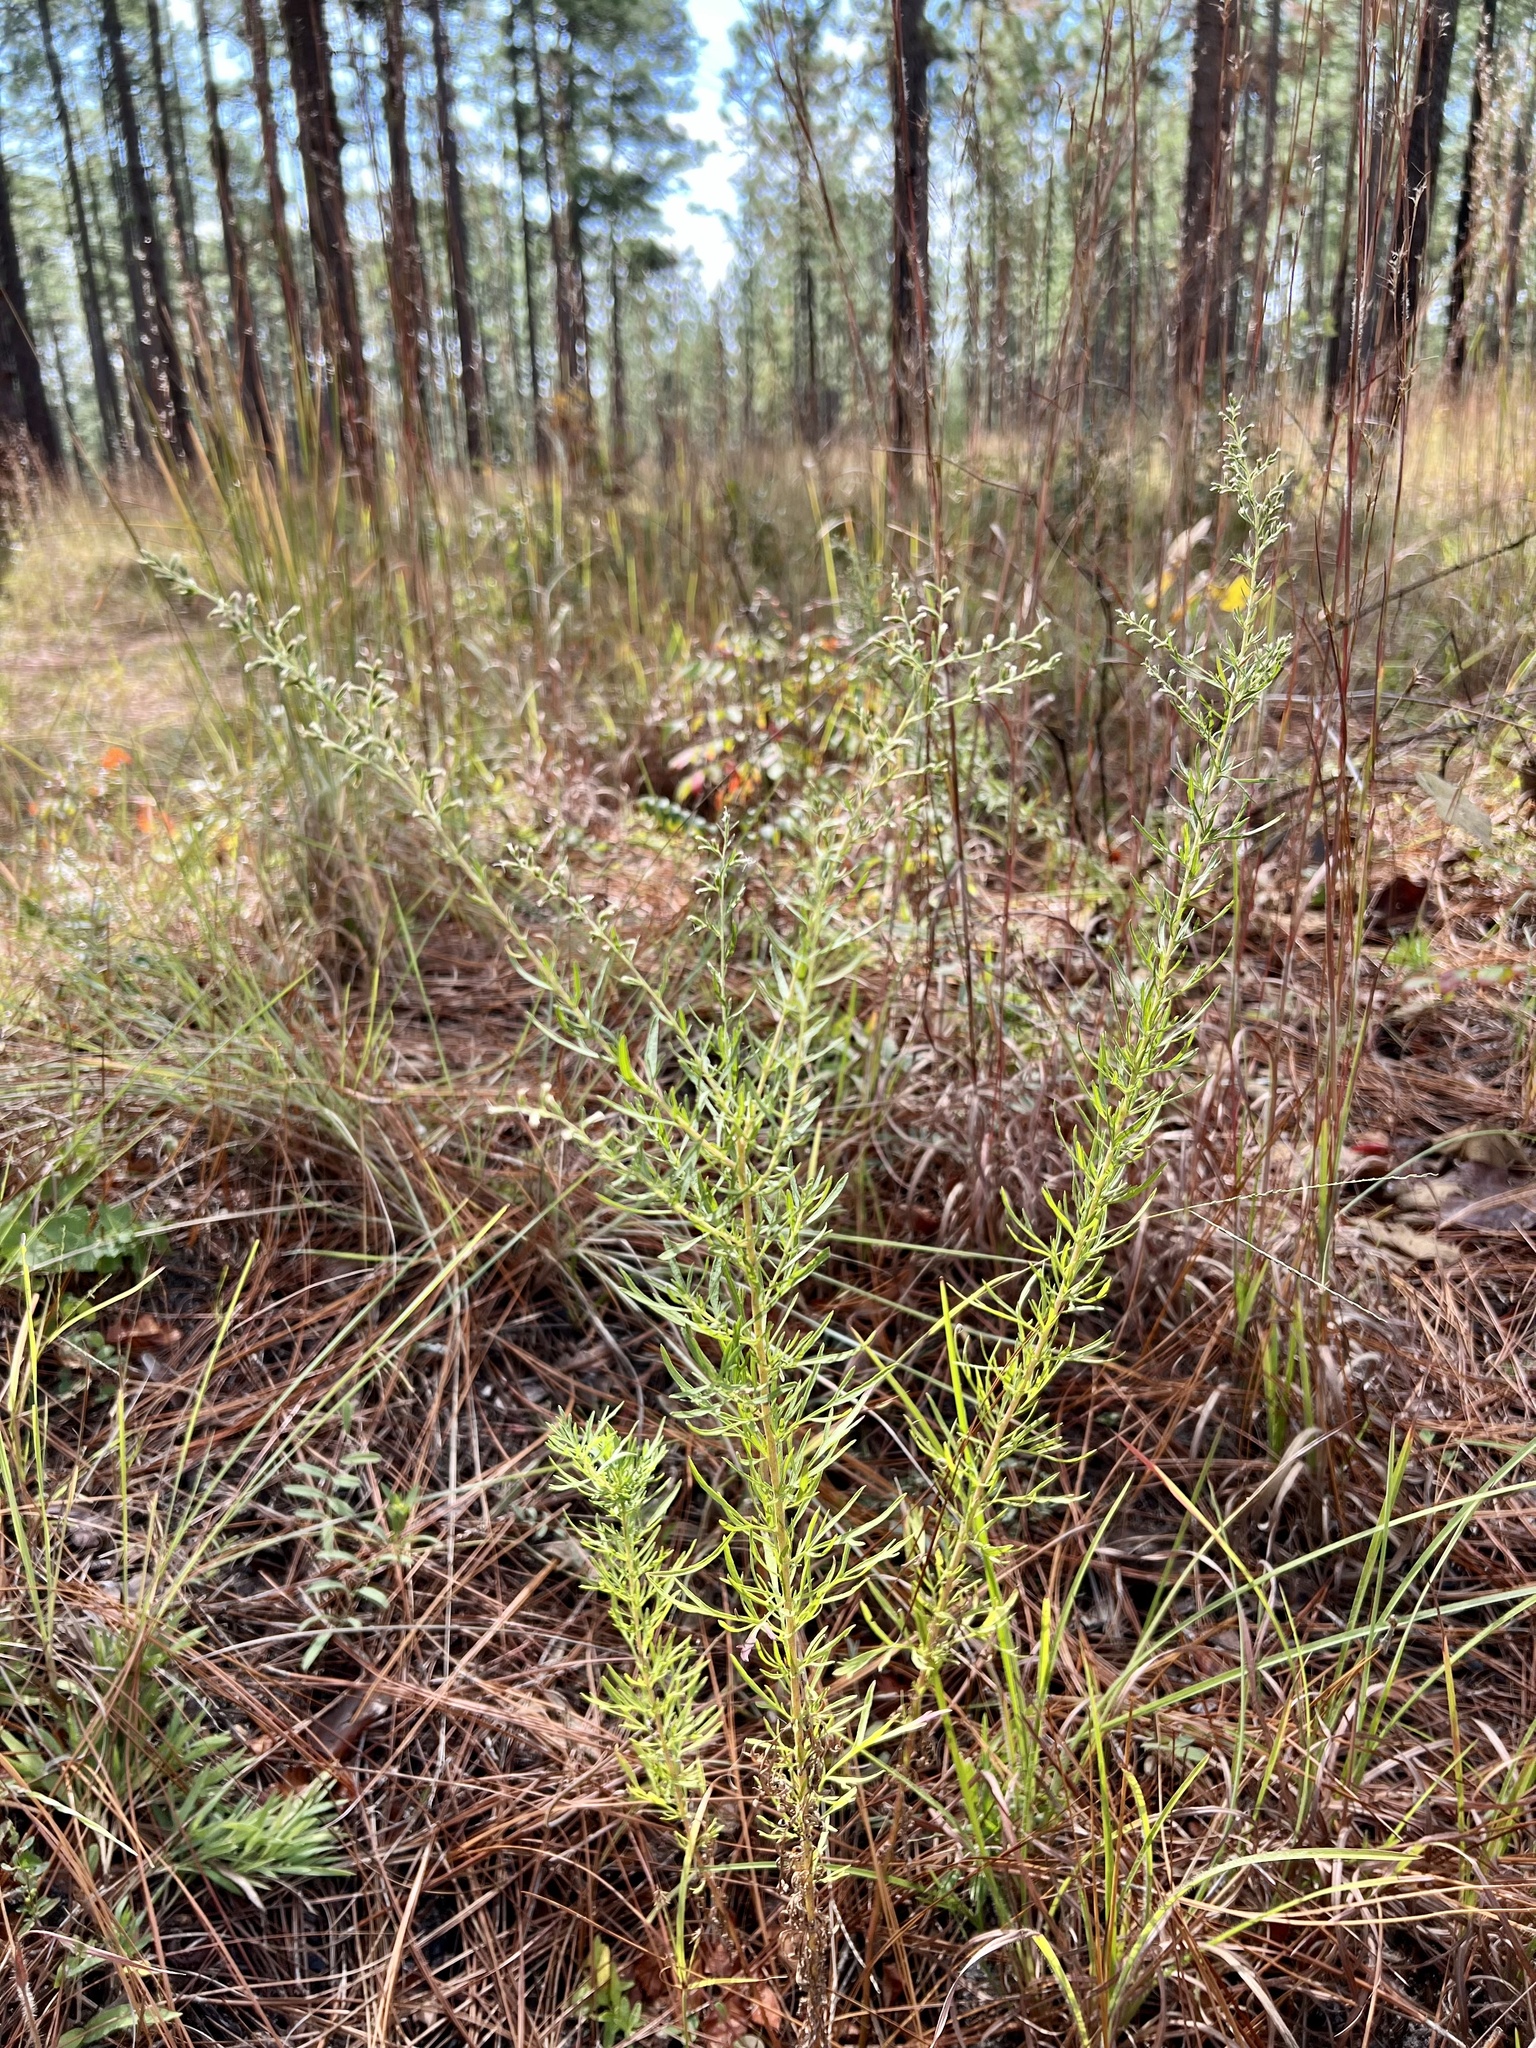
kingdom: Plantae
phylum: Tracheophyta
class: Magnoliopsida
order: Asterales
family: Asteraceae
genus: Eupatorium
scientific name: Eupatorium hyssopifolium
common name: Hyssop-leaf thoroughwort
